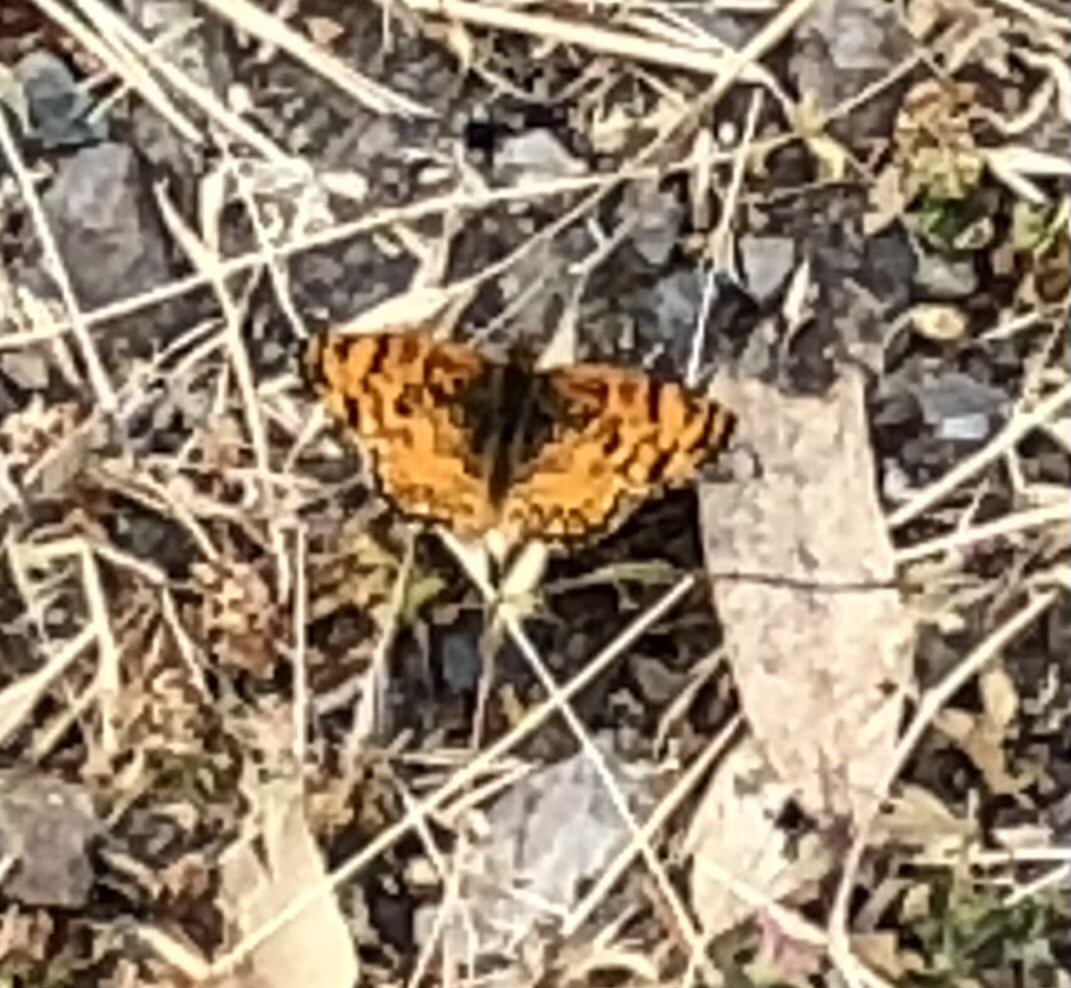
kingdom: Animalia
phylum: Arthropoda
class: Insecta
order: Lepidoptera
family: Nymphalidae
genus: Eresia
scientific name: Eresia aveyrona
